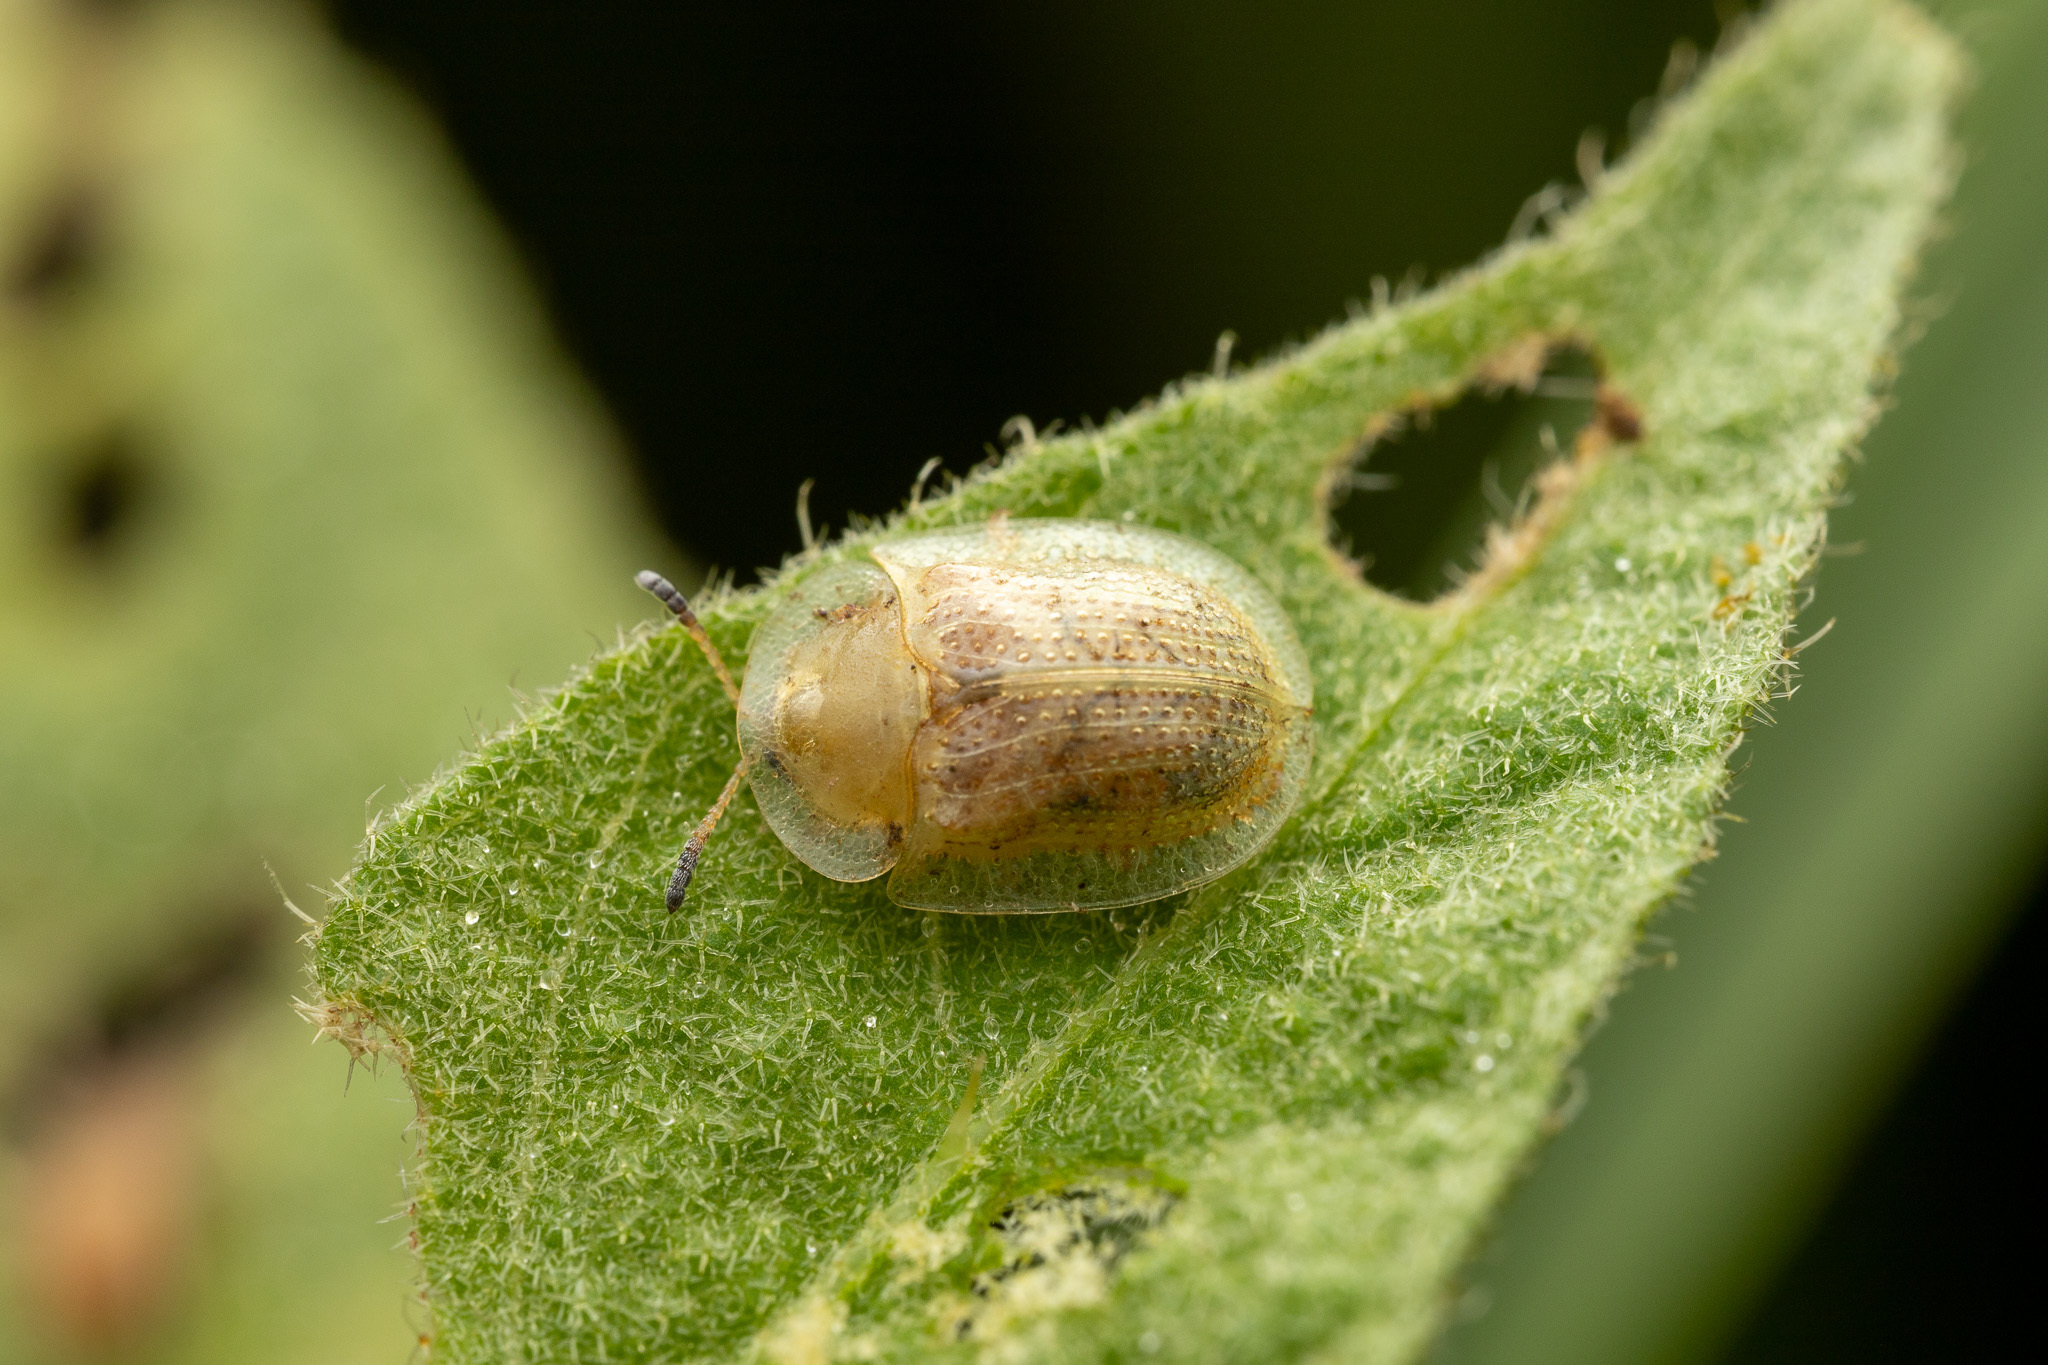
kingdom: Animalia
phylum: Arthropoda
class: Insecta
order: Coleoptera
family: Chrysomelidae
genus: Gratiana
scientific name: Gratiana pallidula
